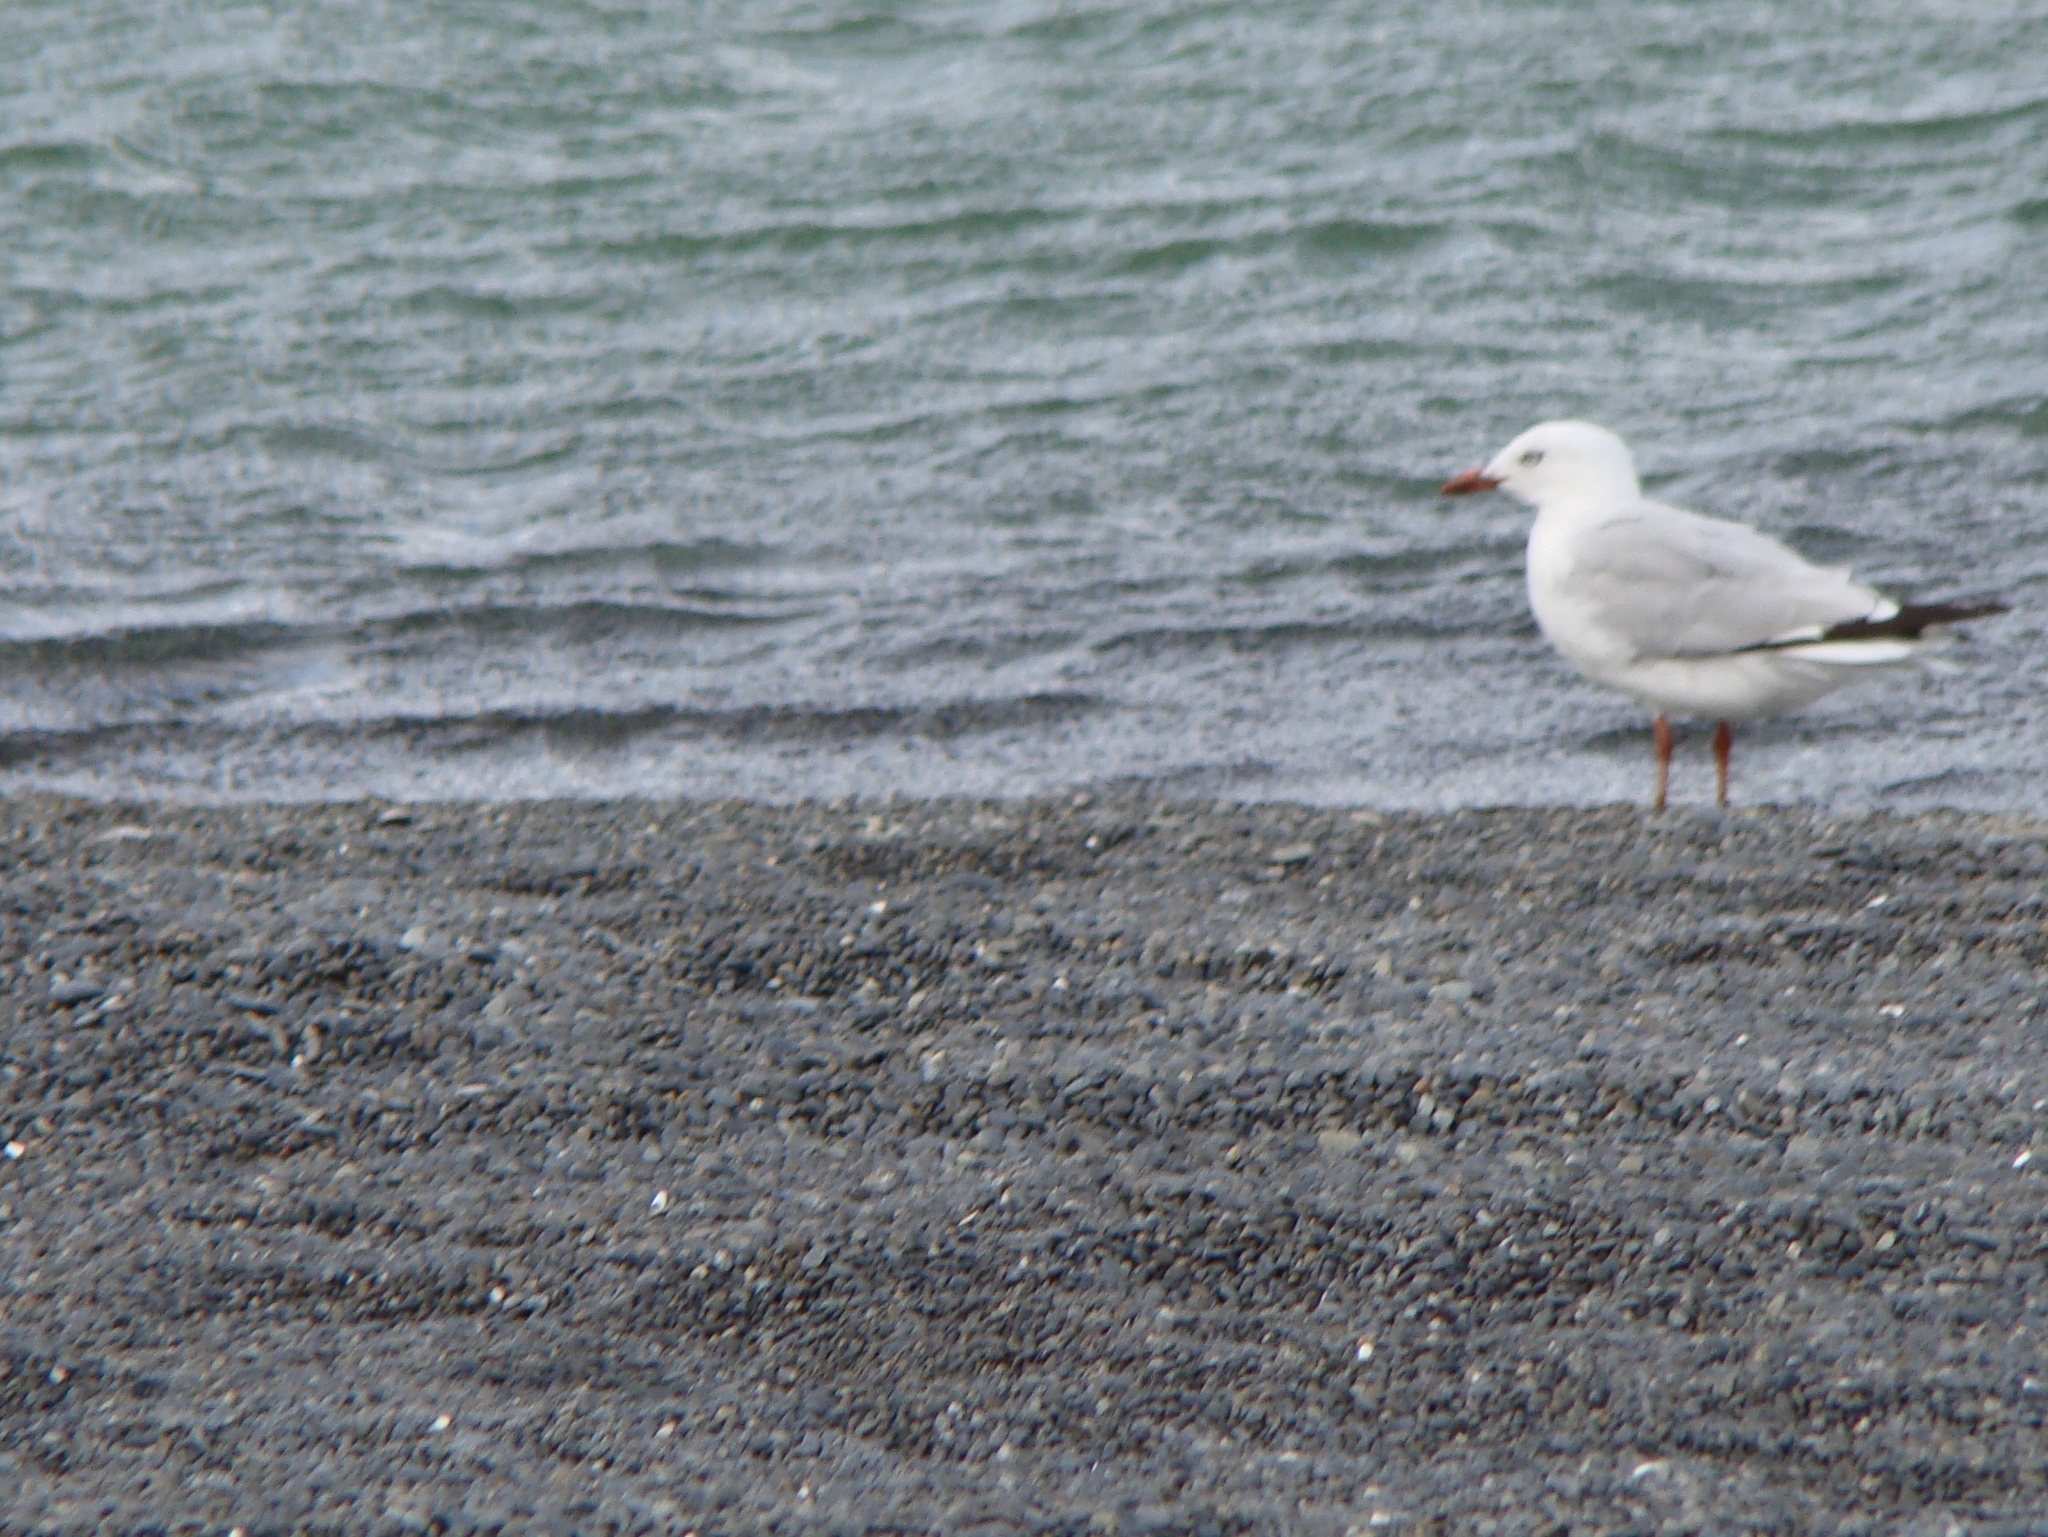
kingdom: Animalia
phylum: Chordata
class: Aves
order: Charadriiformes
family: Laridae
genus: Chroicocephalus
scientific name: Chroicocephalus novaehollandiae
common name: Silver gull
